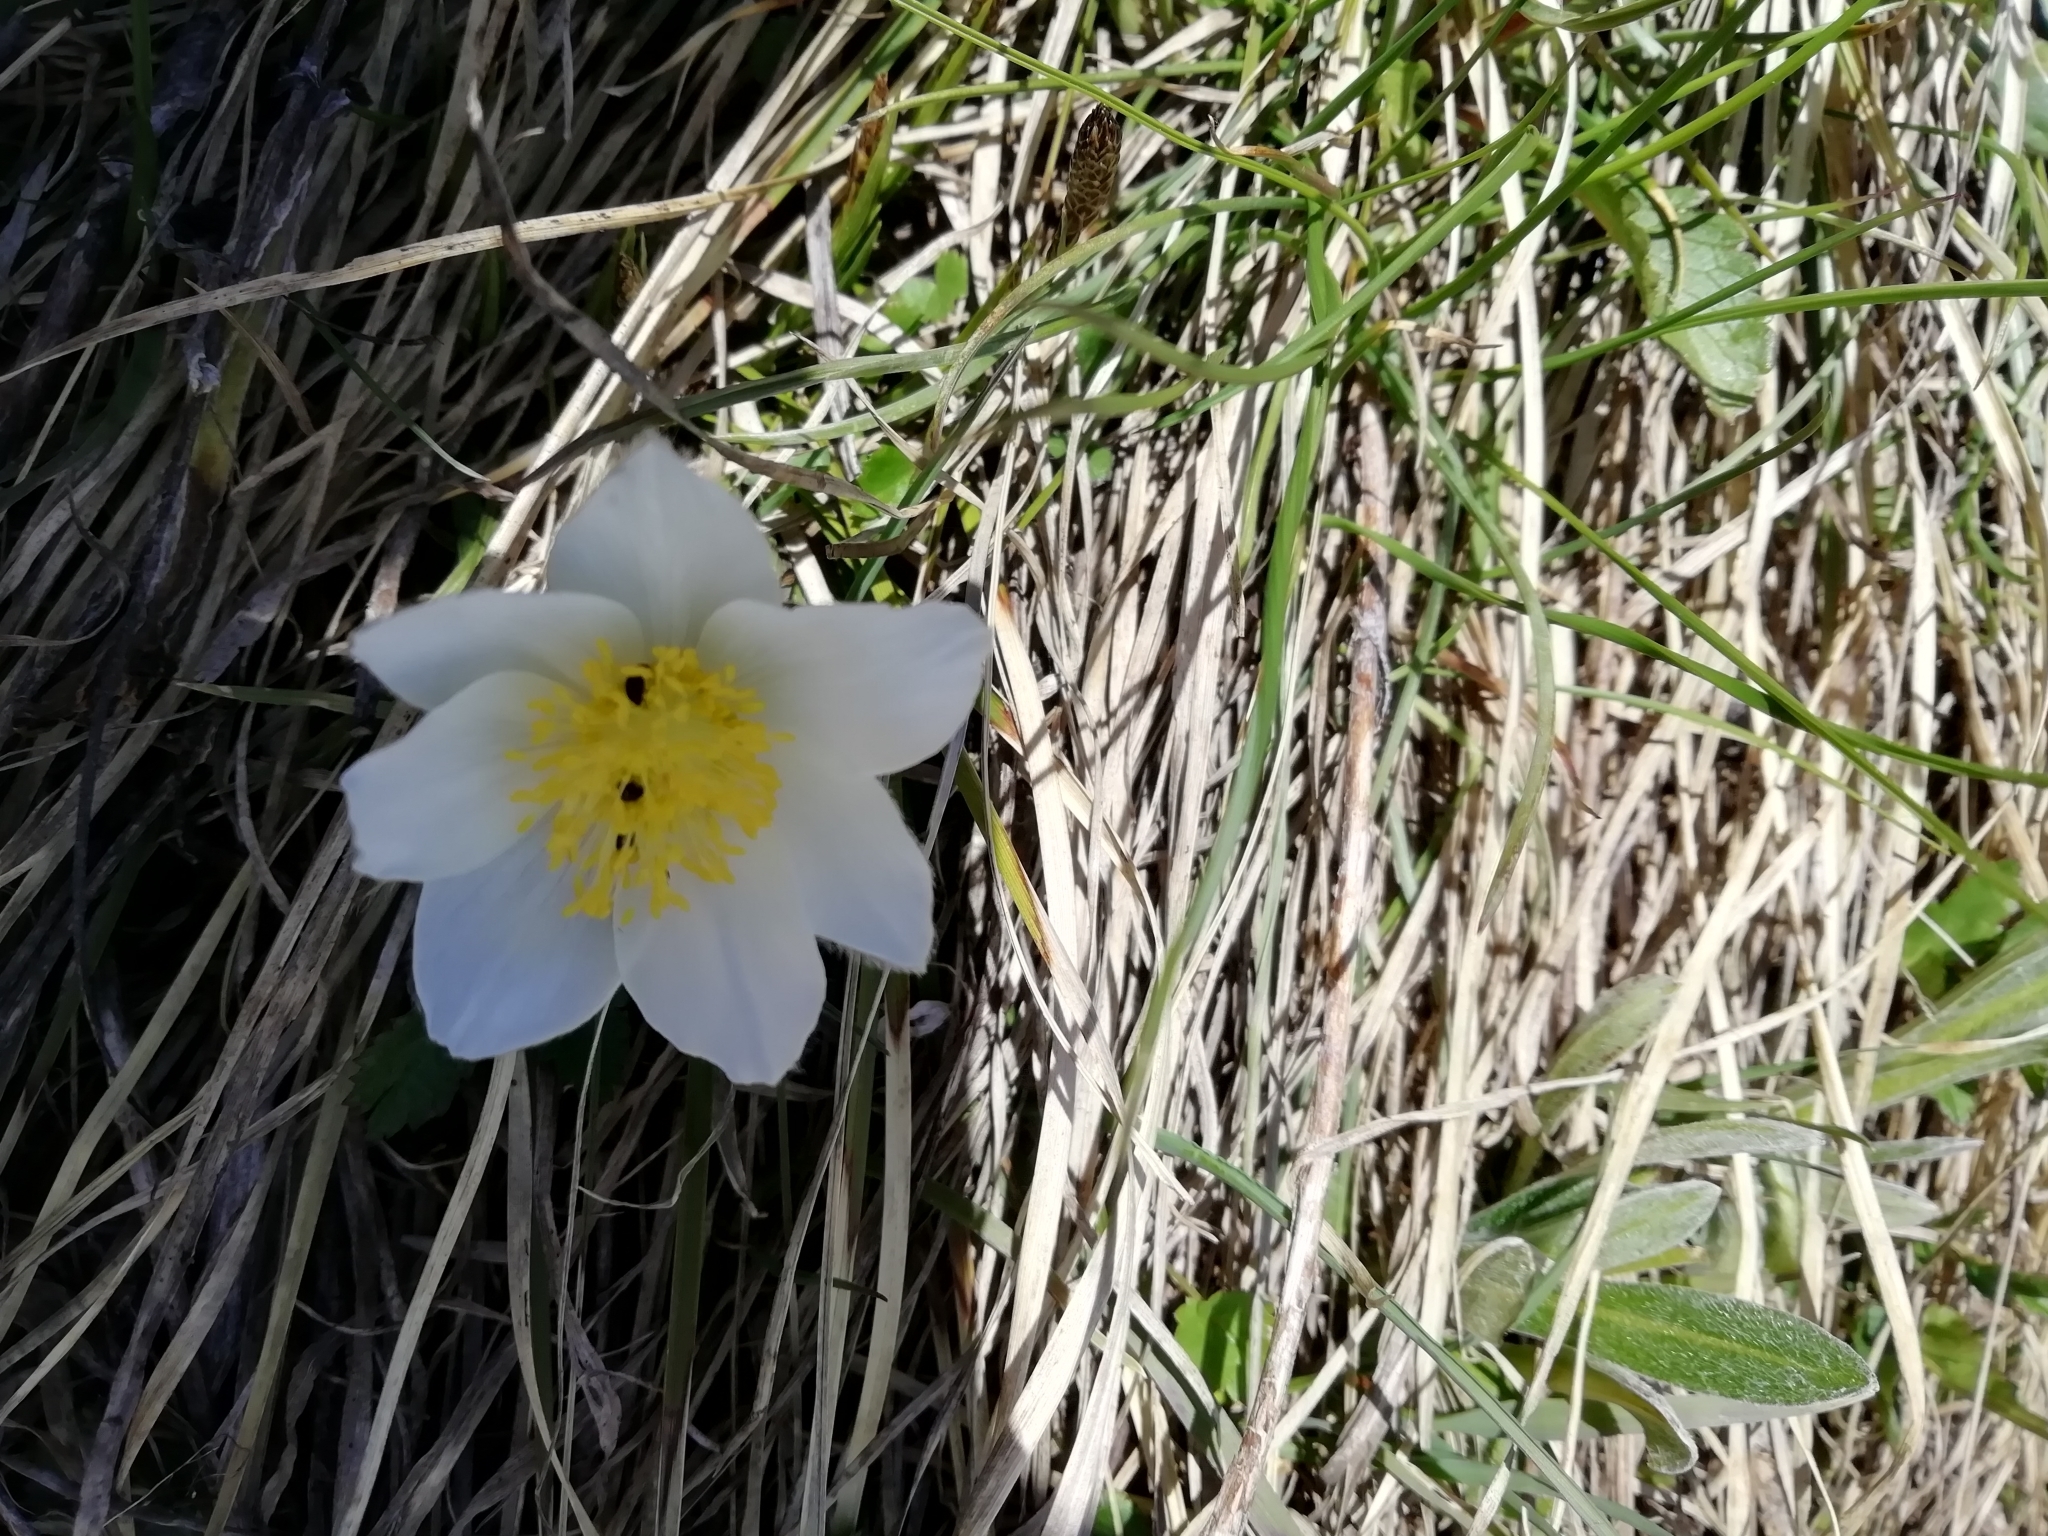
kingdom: Plantae
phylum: Tracheophyta
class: Magnoliopsida
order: Ranunculales
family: Ranunculaceae
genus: Pulsatilla
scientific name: Pulsatilla alpina
